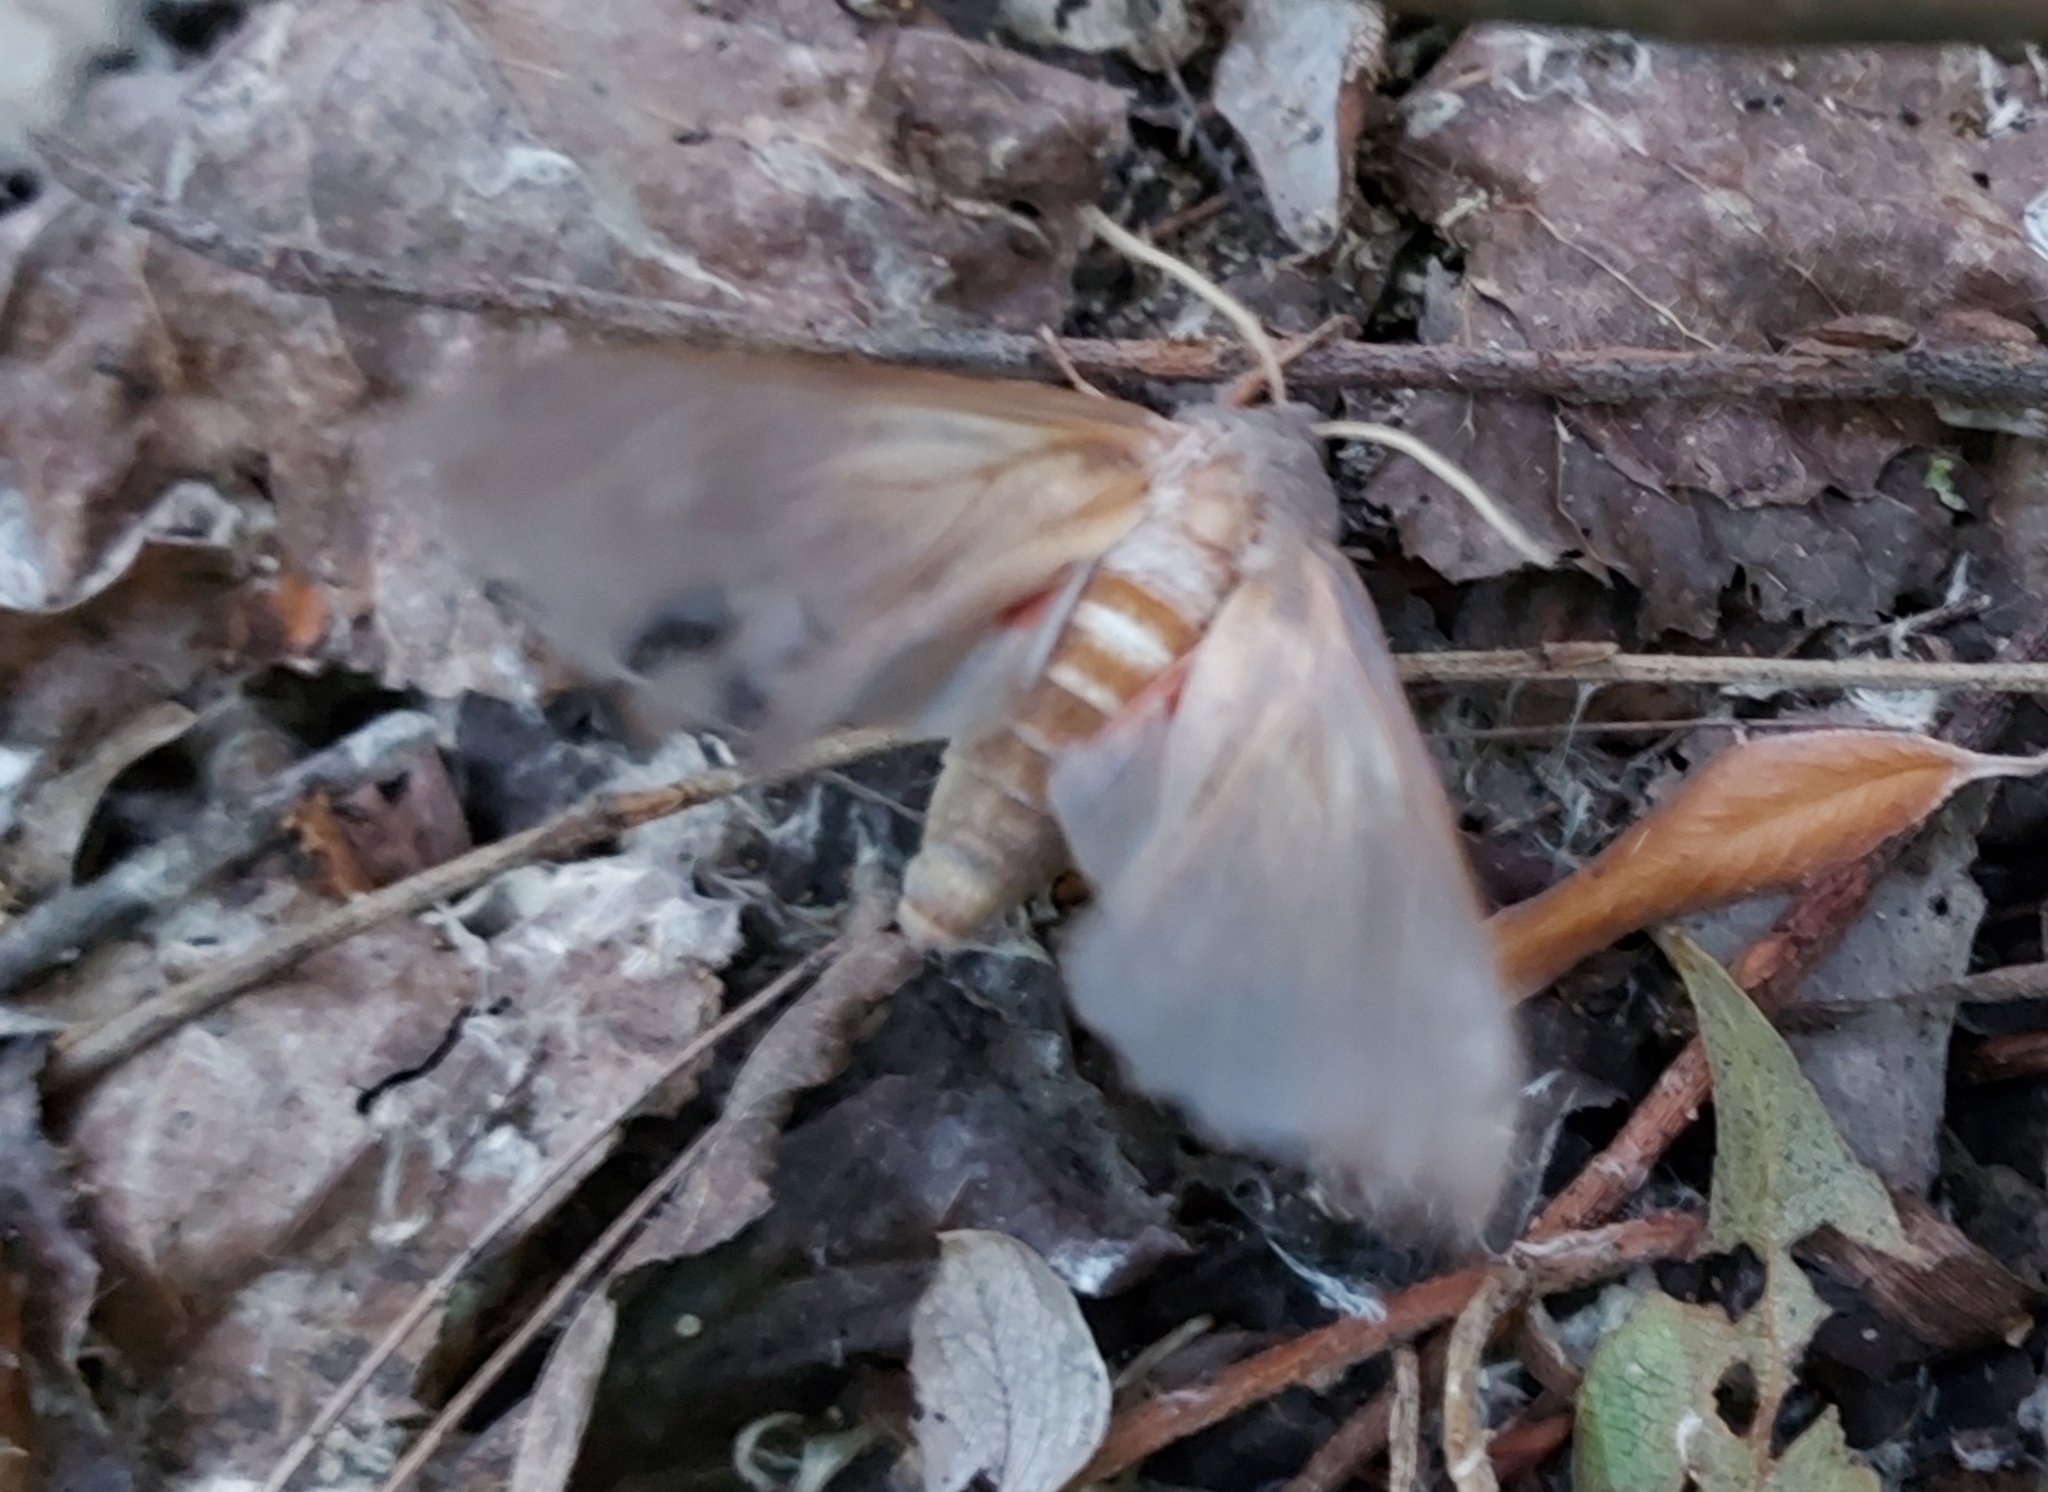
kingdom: Animalia
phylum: Arthropoda
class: Insecta
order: Lepidoptera
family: Sphingidae
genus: Laothoe
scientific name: Laothoe populi
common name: Poplar hawk-moth
